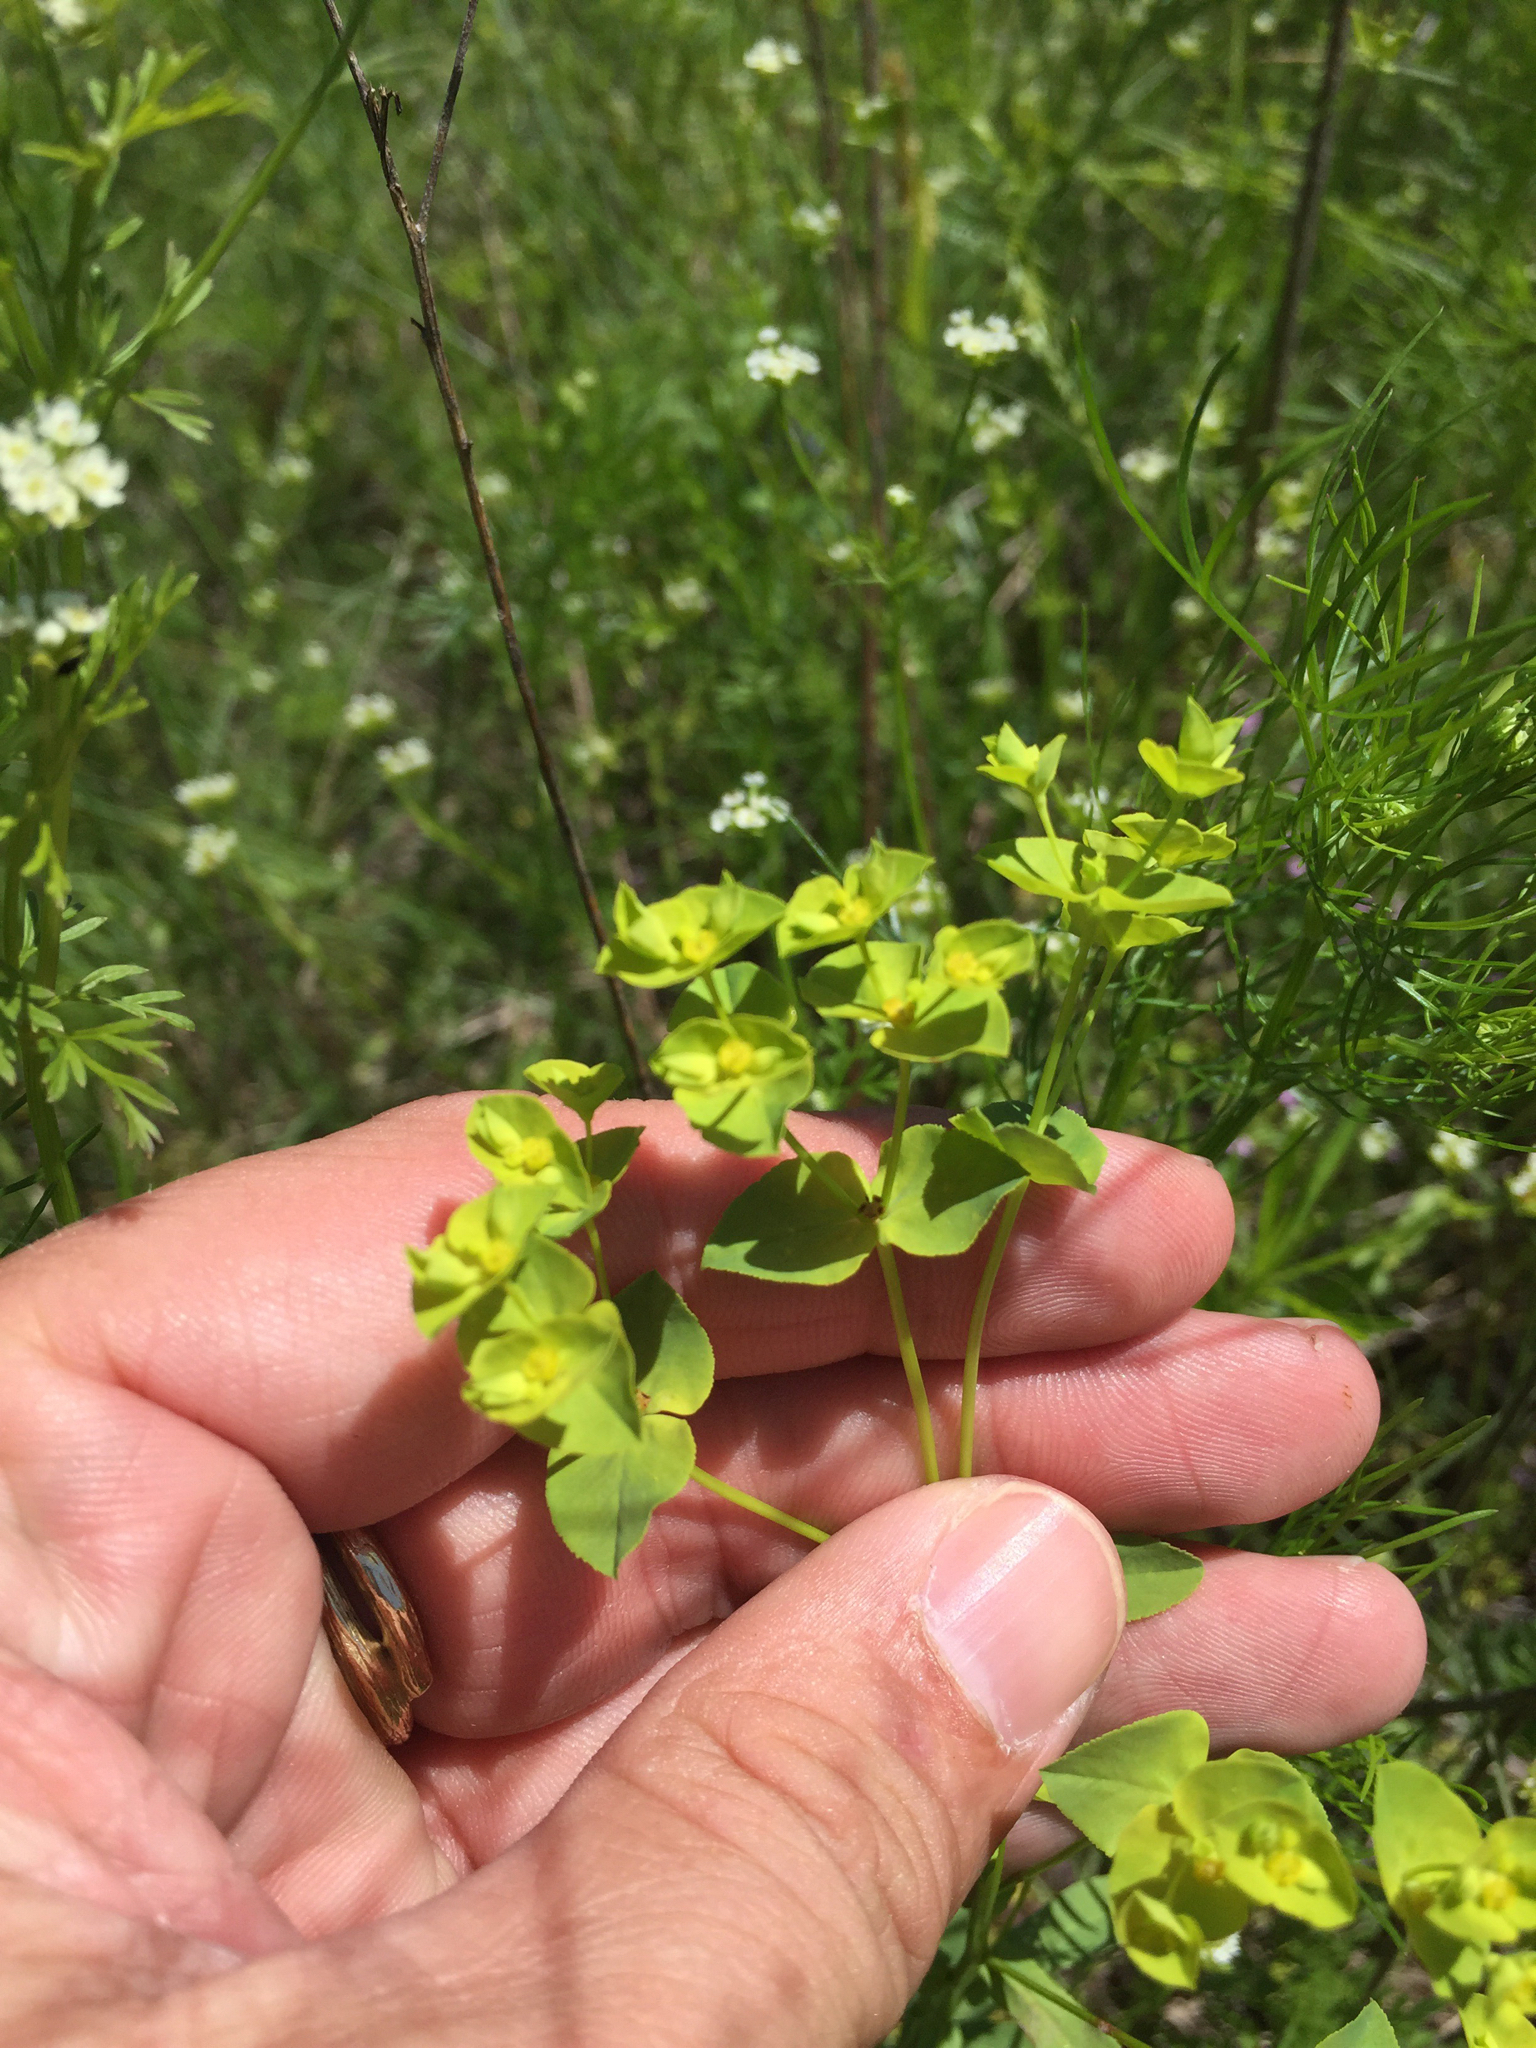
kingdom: Plantae
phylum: Tracheophyta
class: Magnoliopsida
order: Malpighiales
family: Euphorbiaceae
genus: Euphorbia
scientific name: Euphorbia spathulata
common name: Blunt spurge
